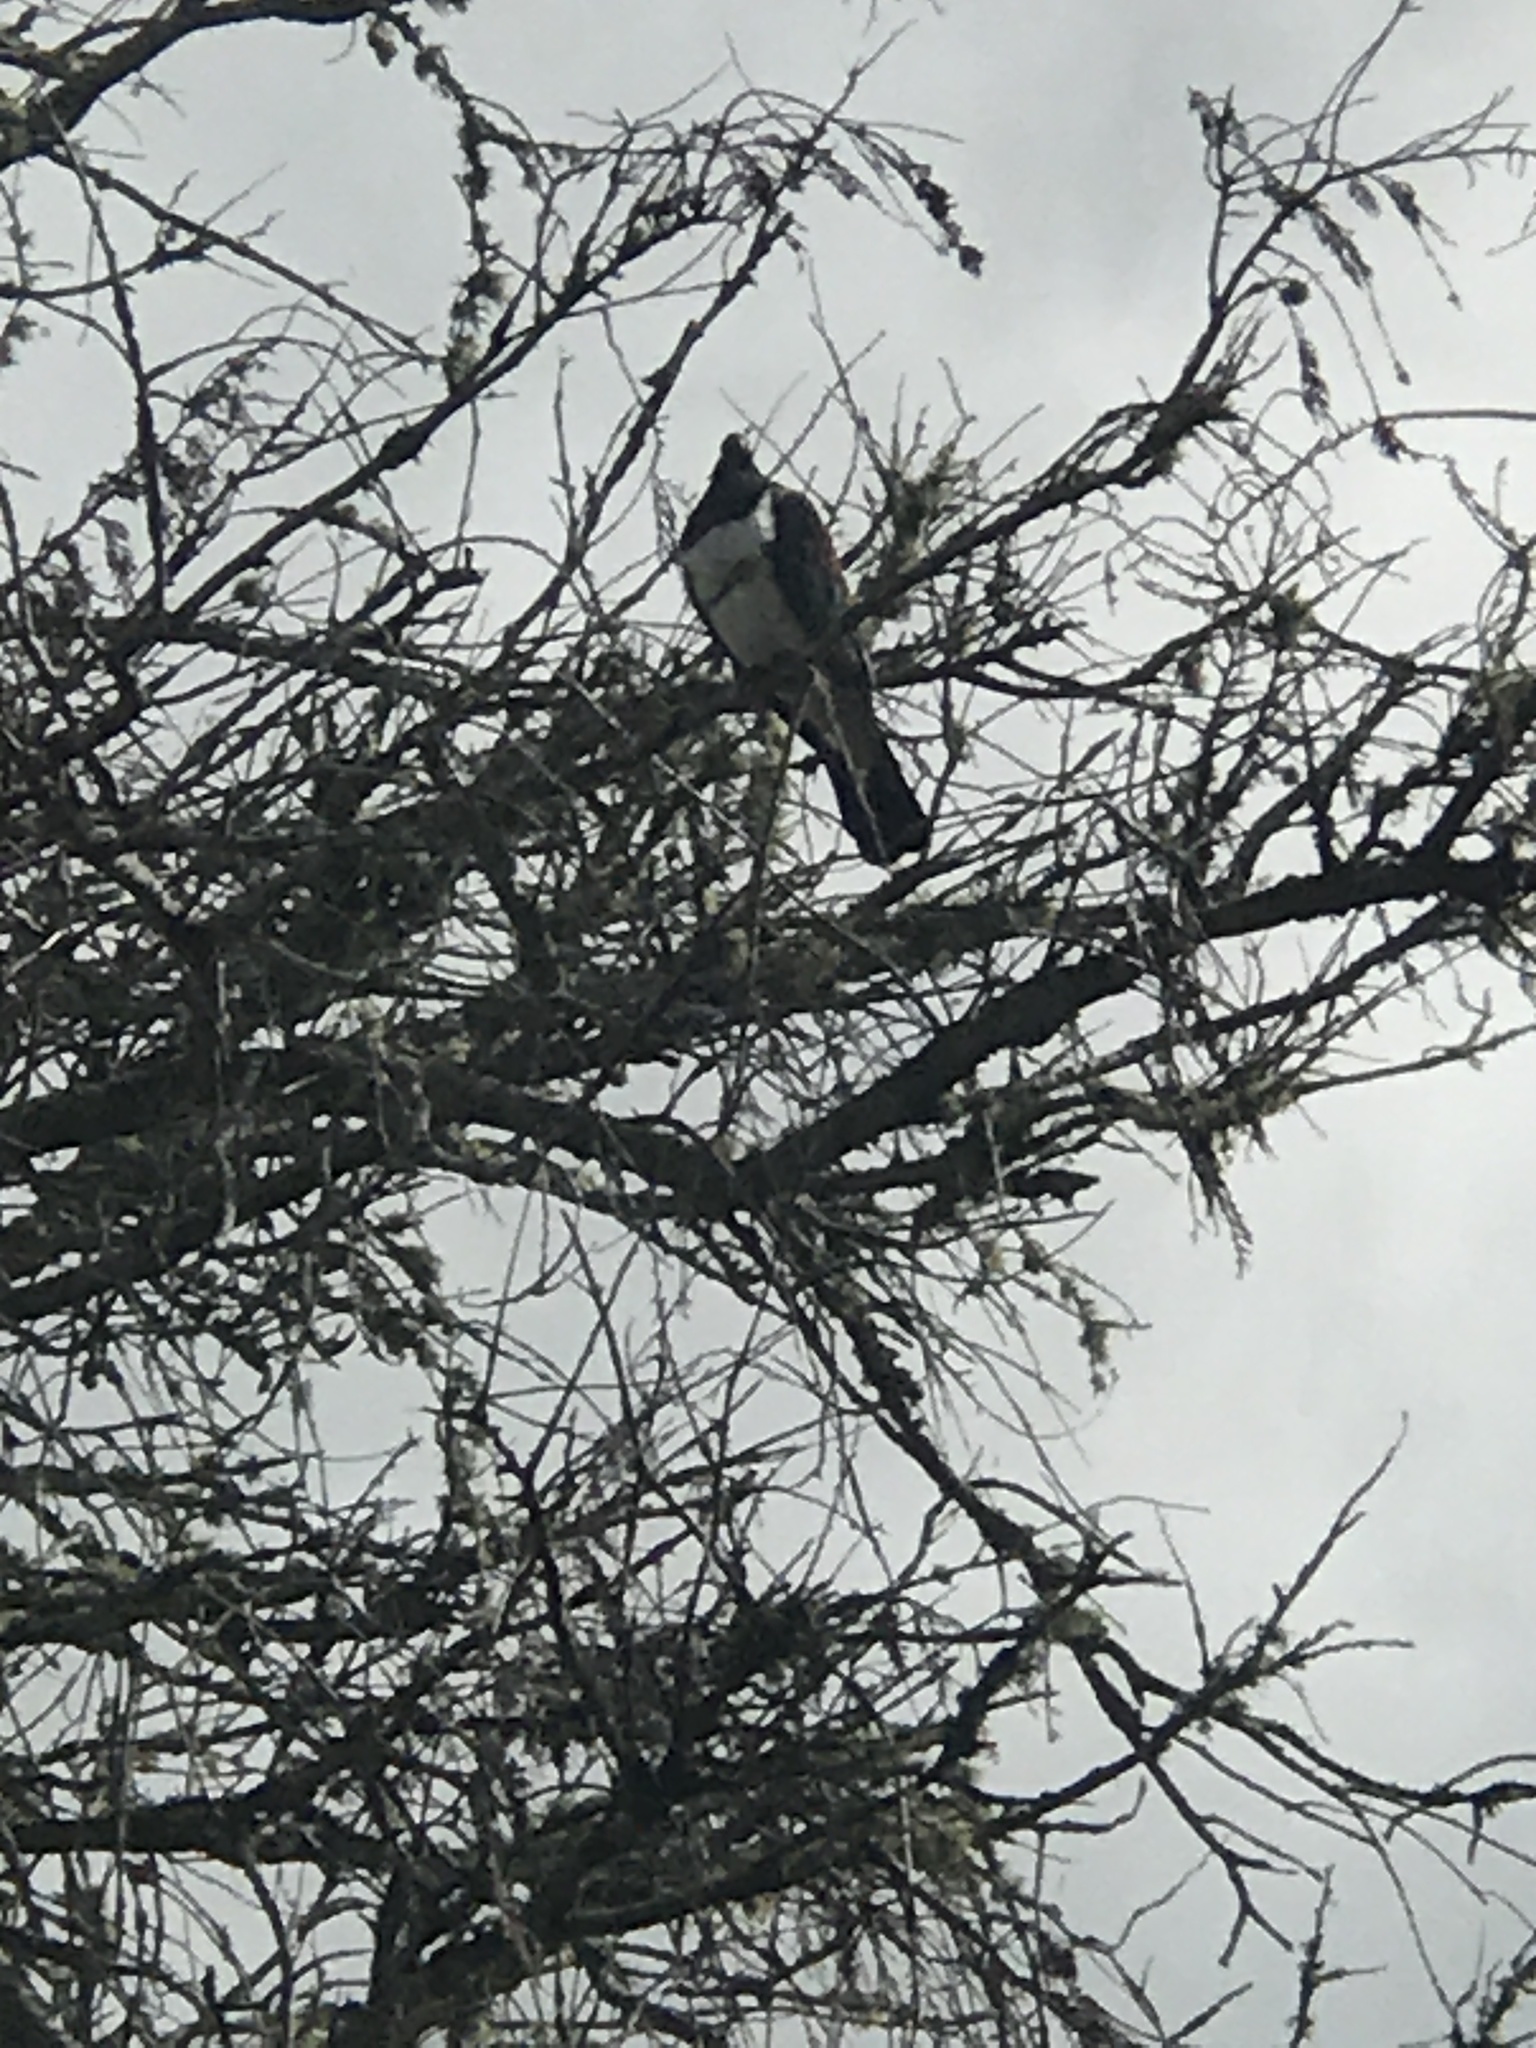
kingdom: Animalia
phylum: Chordata
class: Aves
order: Columbiformes
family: Columbidae
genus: Hemiphaga
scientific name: Hemiphaga novaeseelandiae
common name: New zealand pigeon
